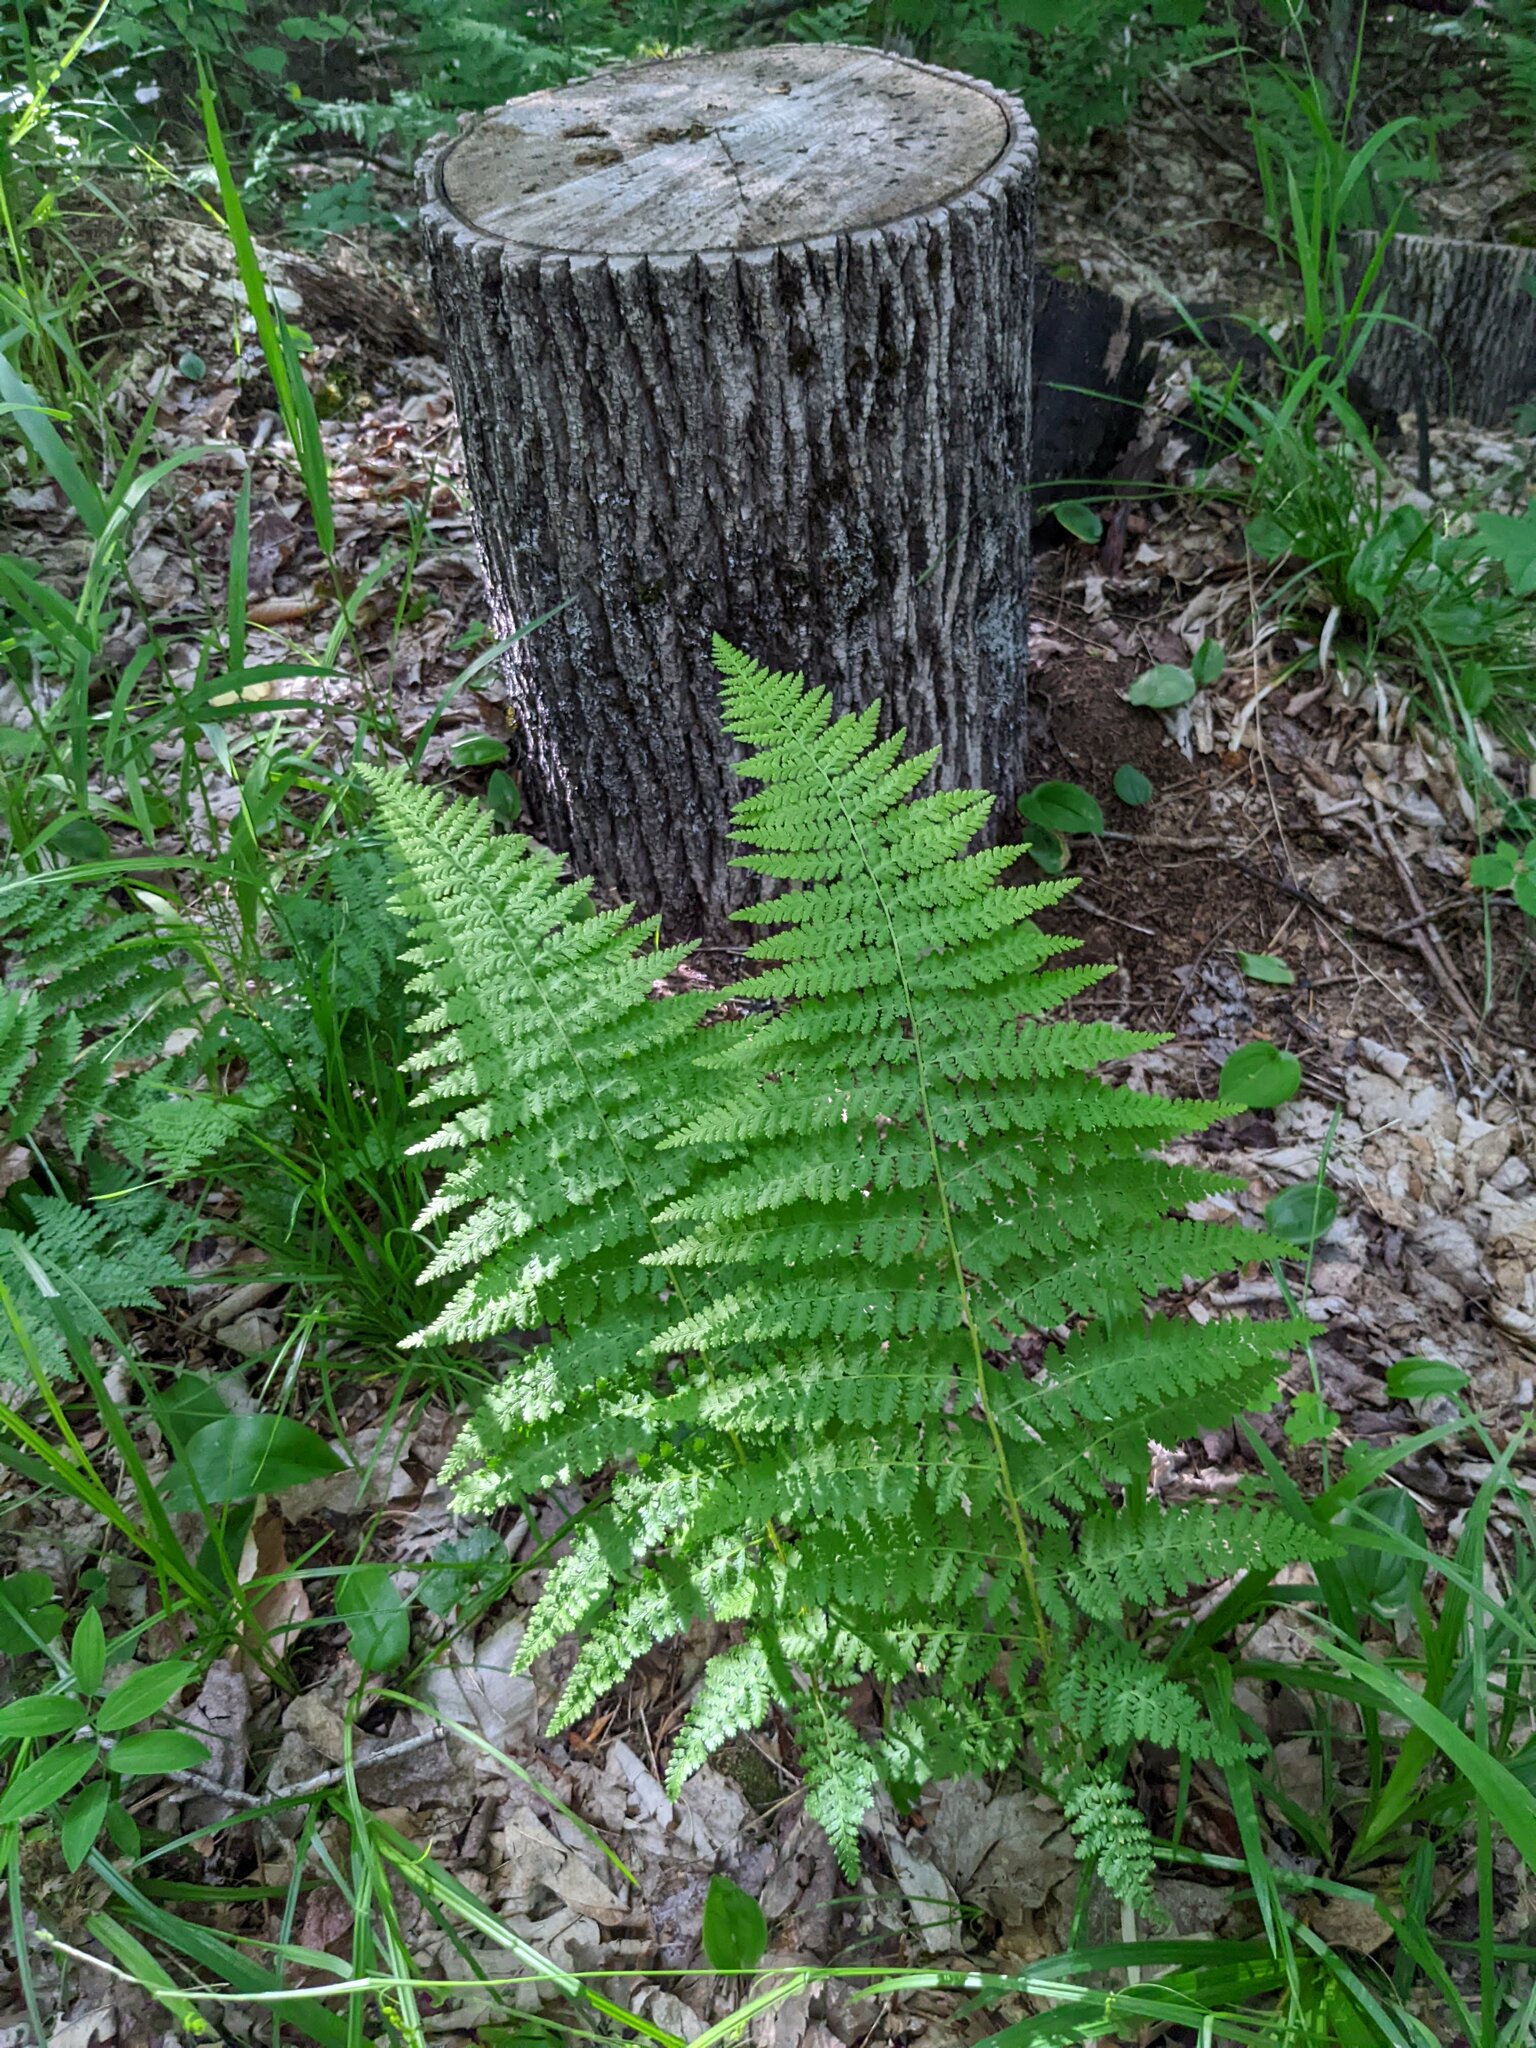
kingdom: Plantae
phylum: Tracheophyta
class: Polypodiopsida
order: Polypodiales
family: Dennstaedtiaceae
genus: Sitobolium
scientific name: Sitobolium punctilobum
